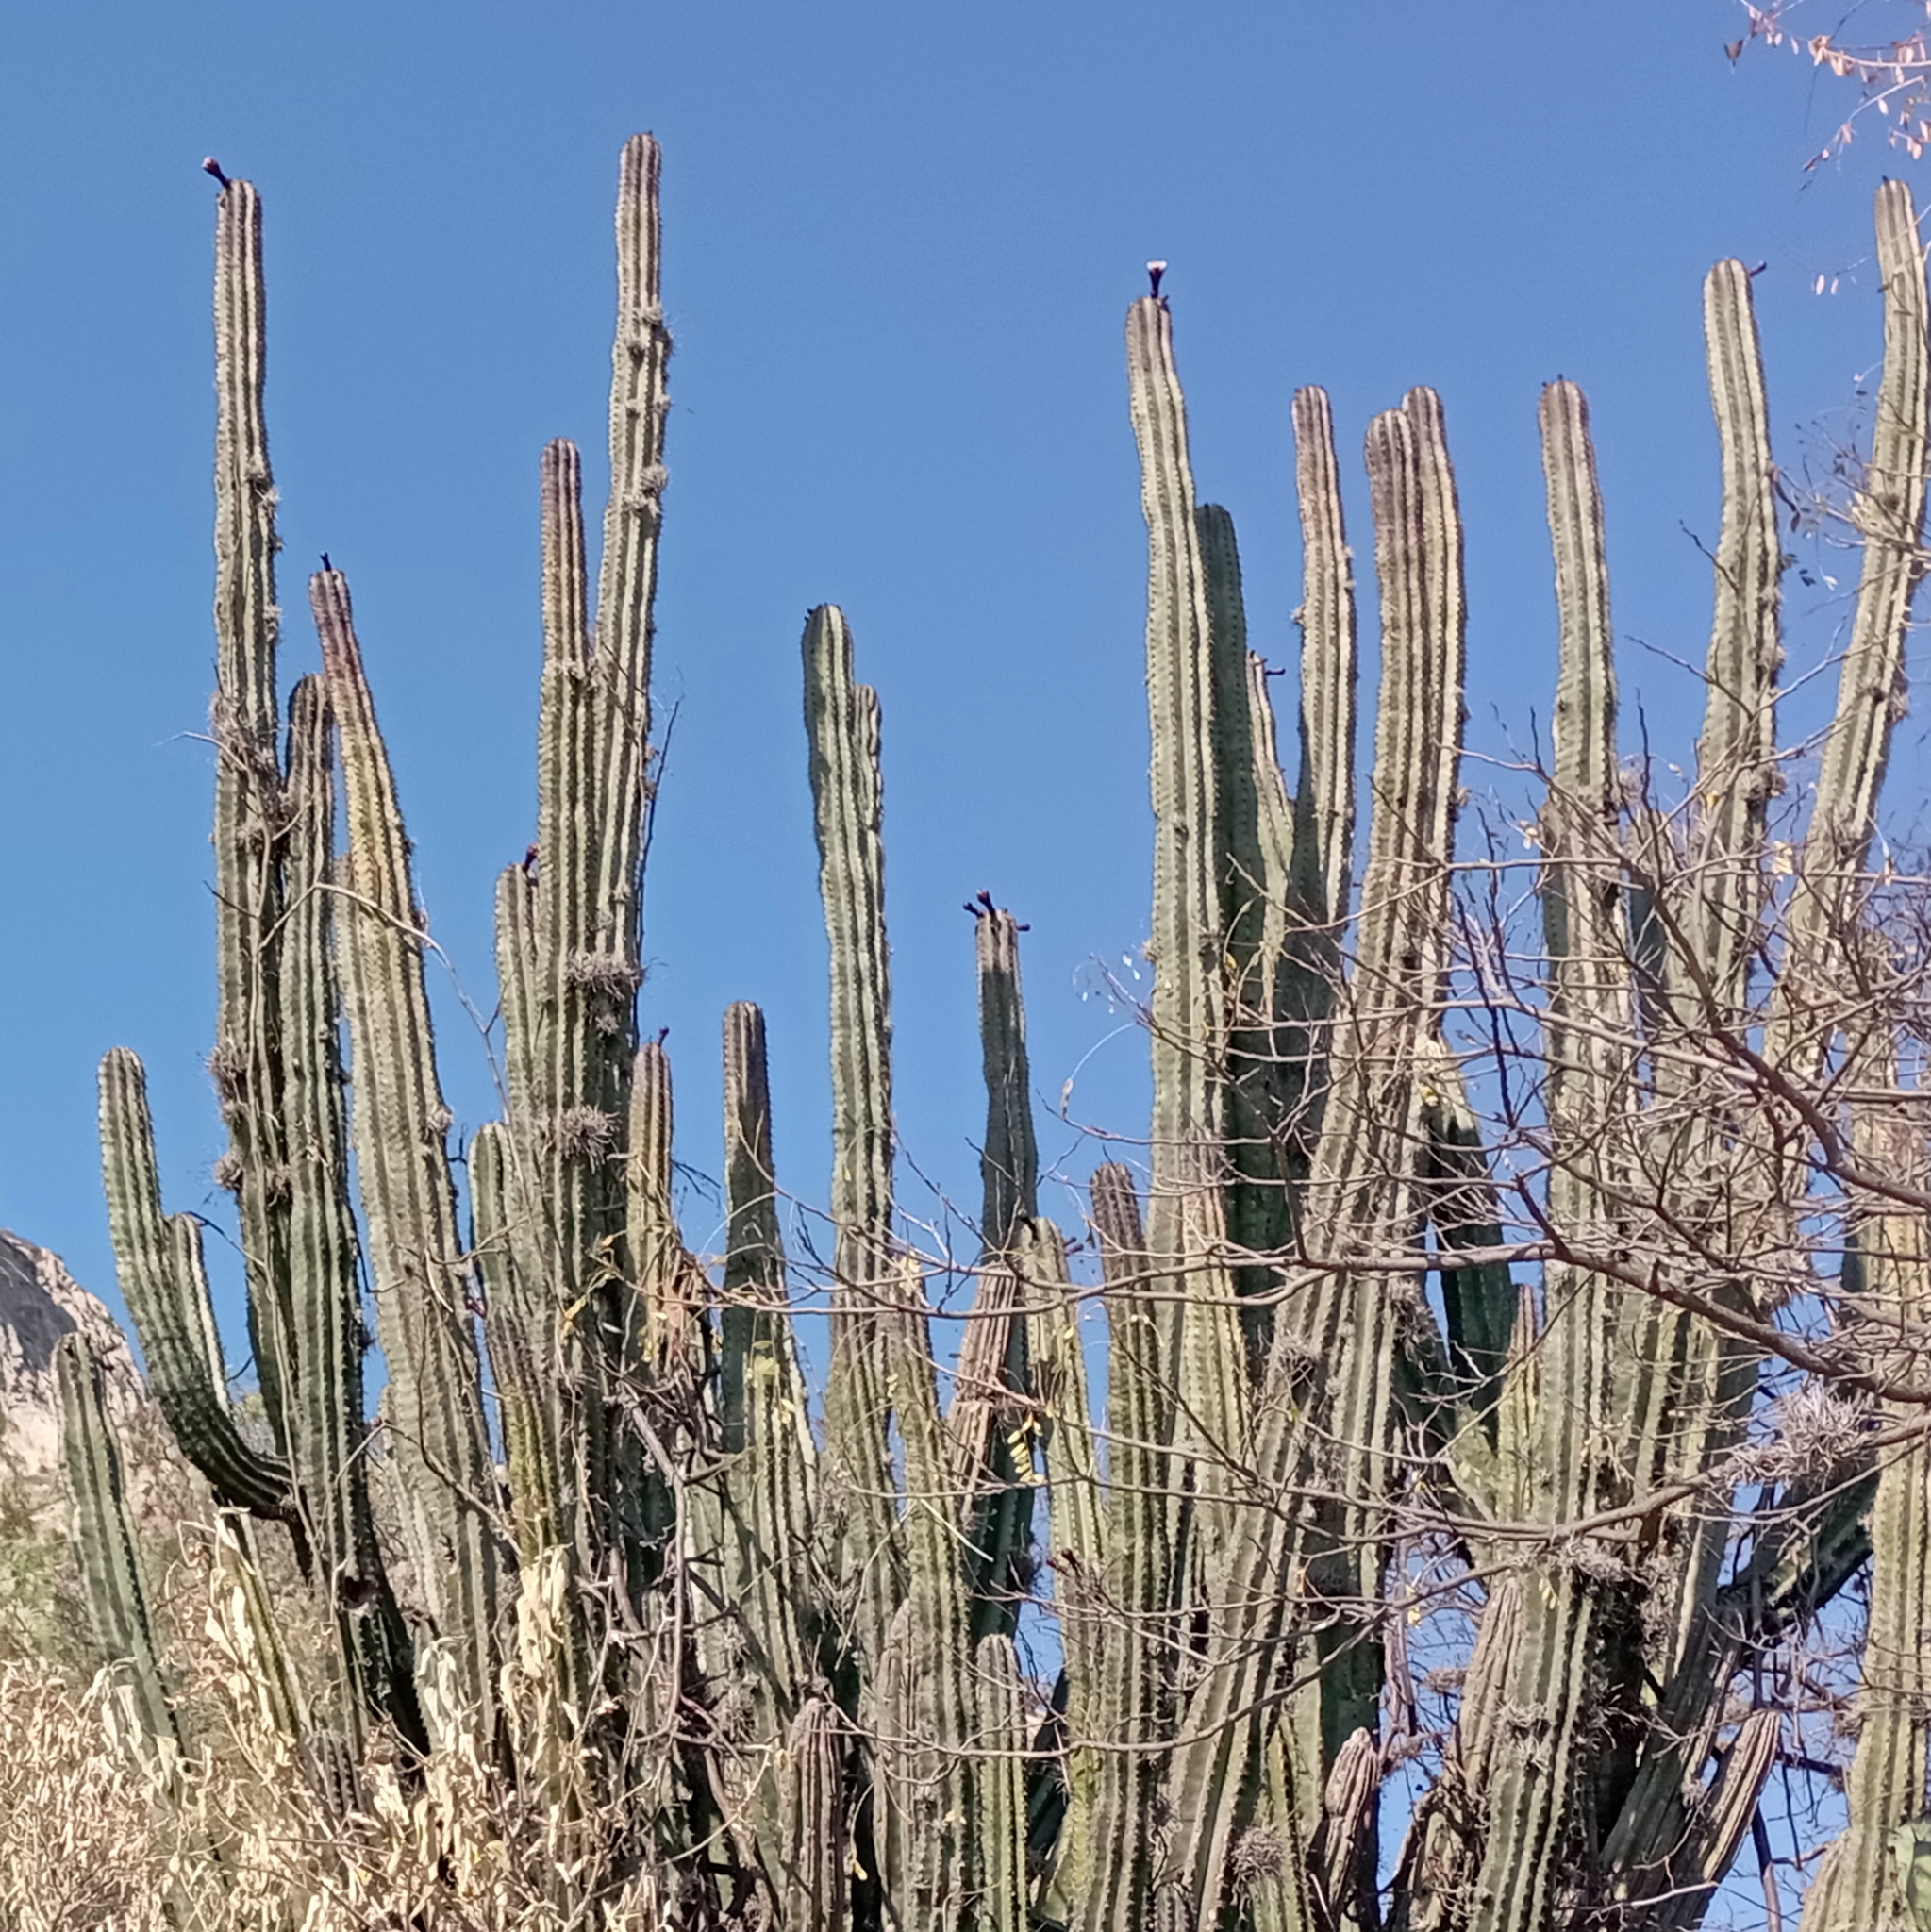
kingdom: Plantae
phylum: Tracheophyta
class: Magnoliopsida
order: Caryophyllales
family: Cactaceae
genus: Stenocereus
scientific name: Stenocereus queretaroensis
